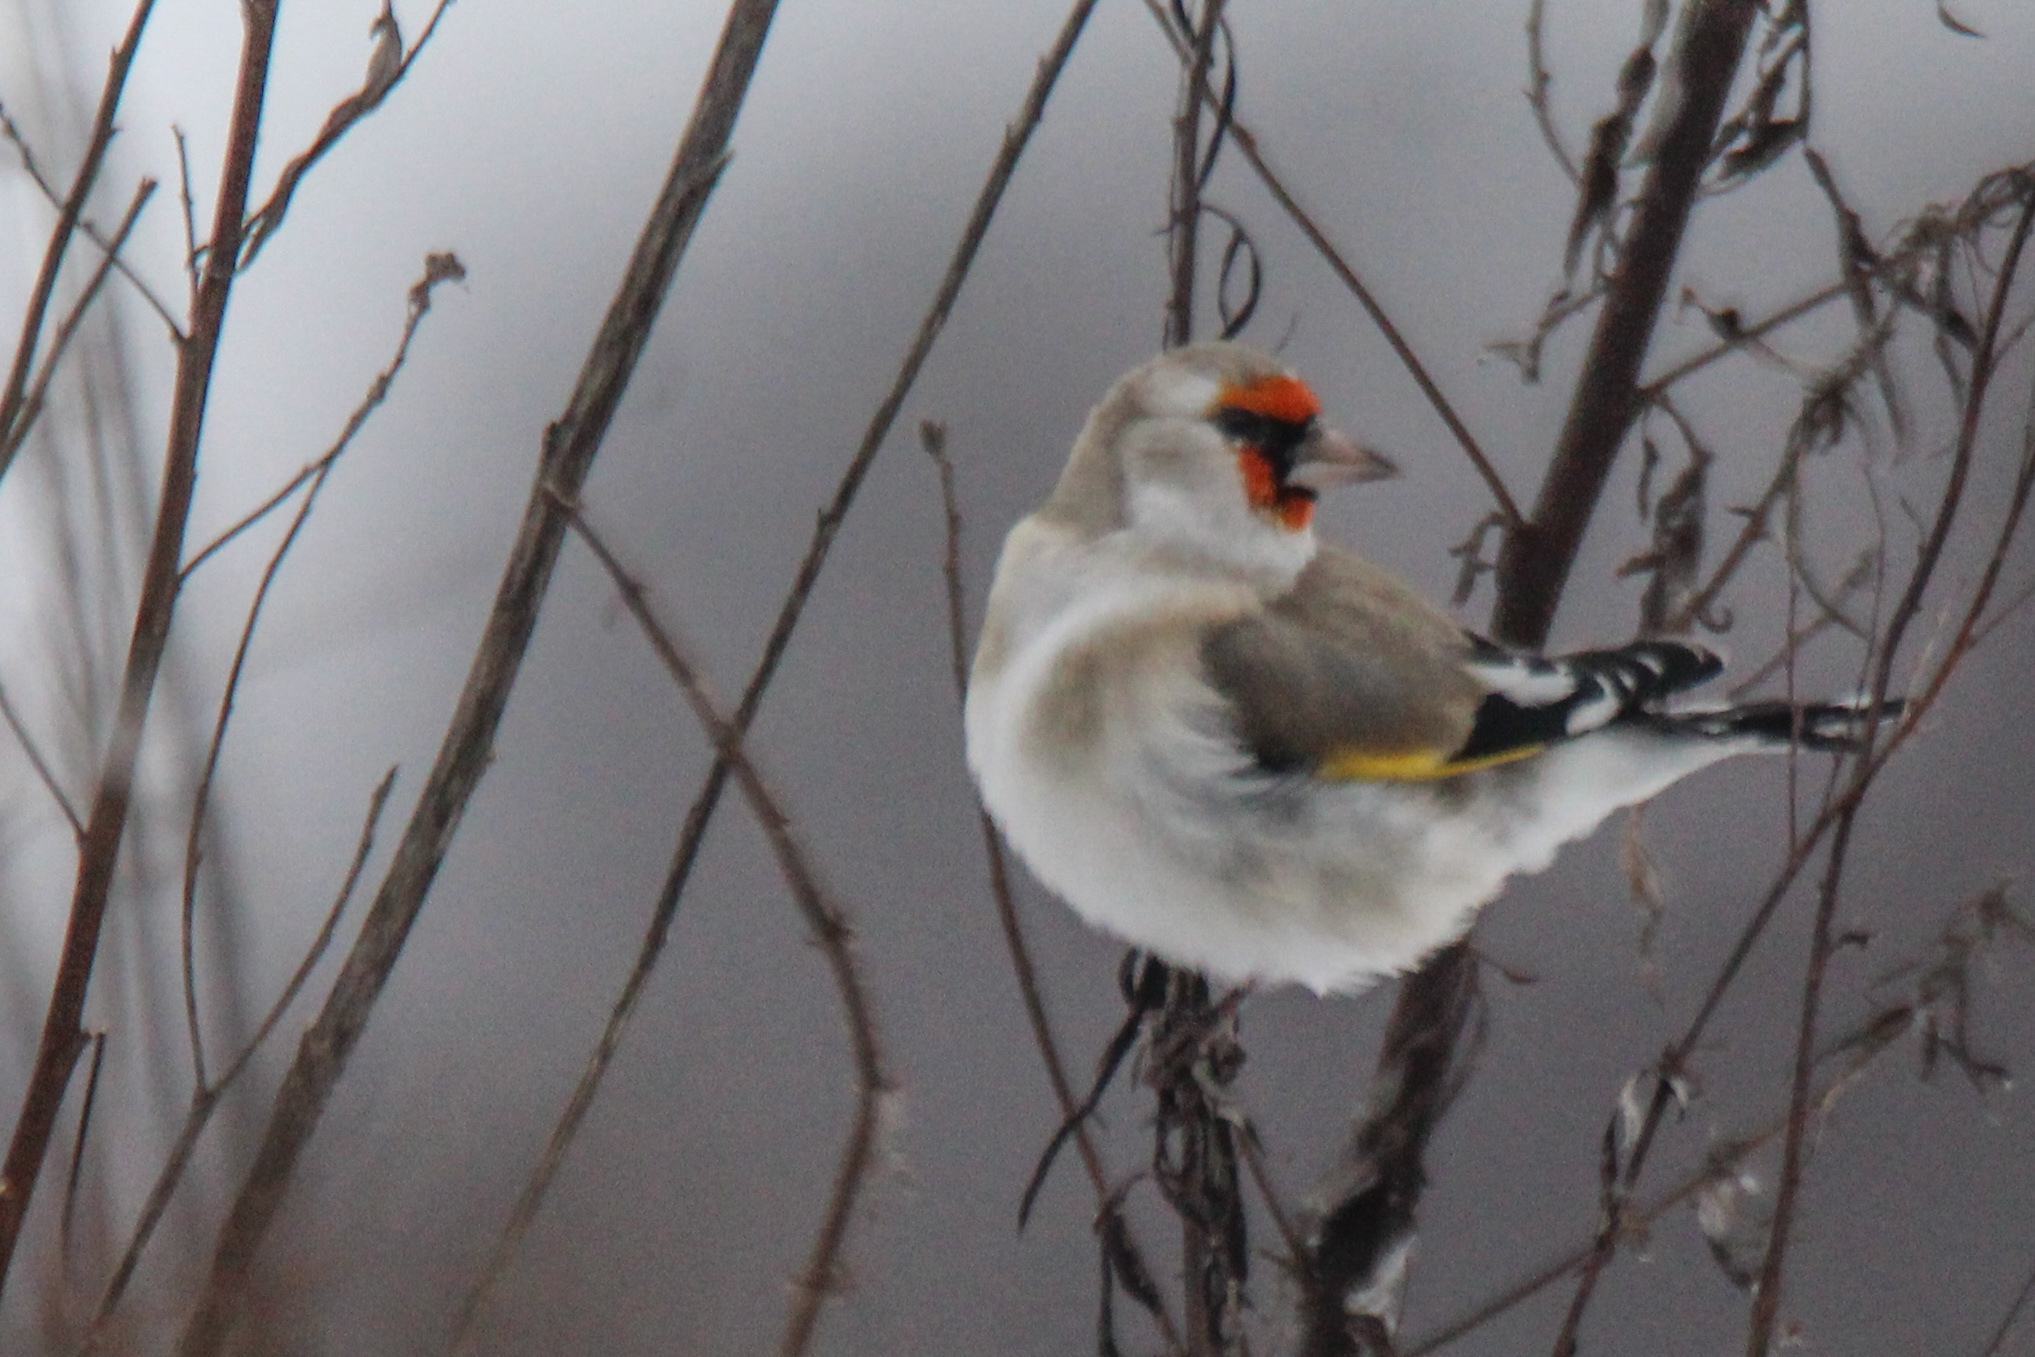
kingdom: Animalia
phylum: Chordata
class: Aves
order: Passeriformes
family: Fringillidae
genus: Carduelis
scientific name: Carduelis carduelis
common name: European goldfinch
